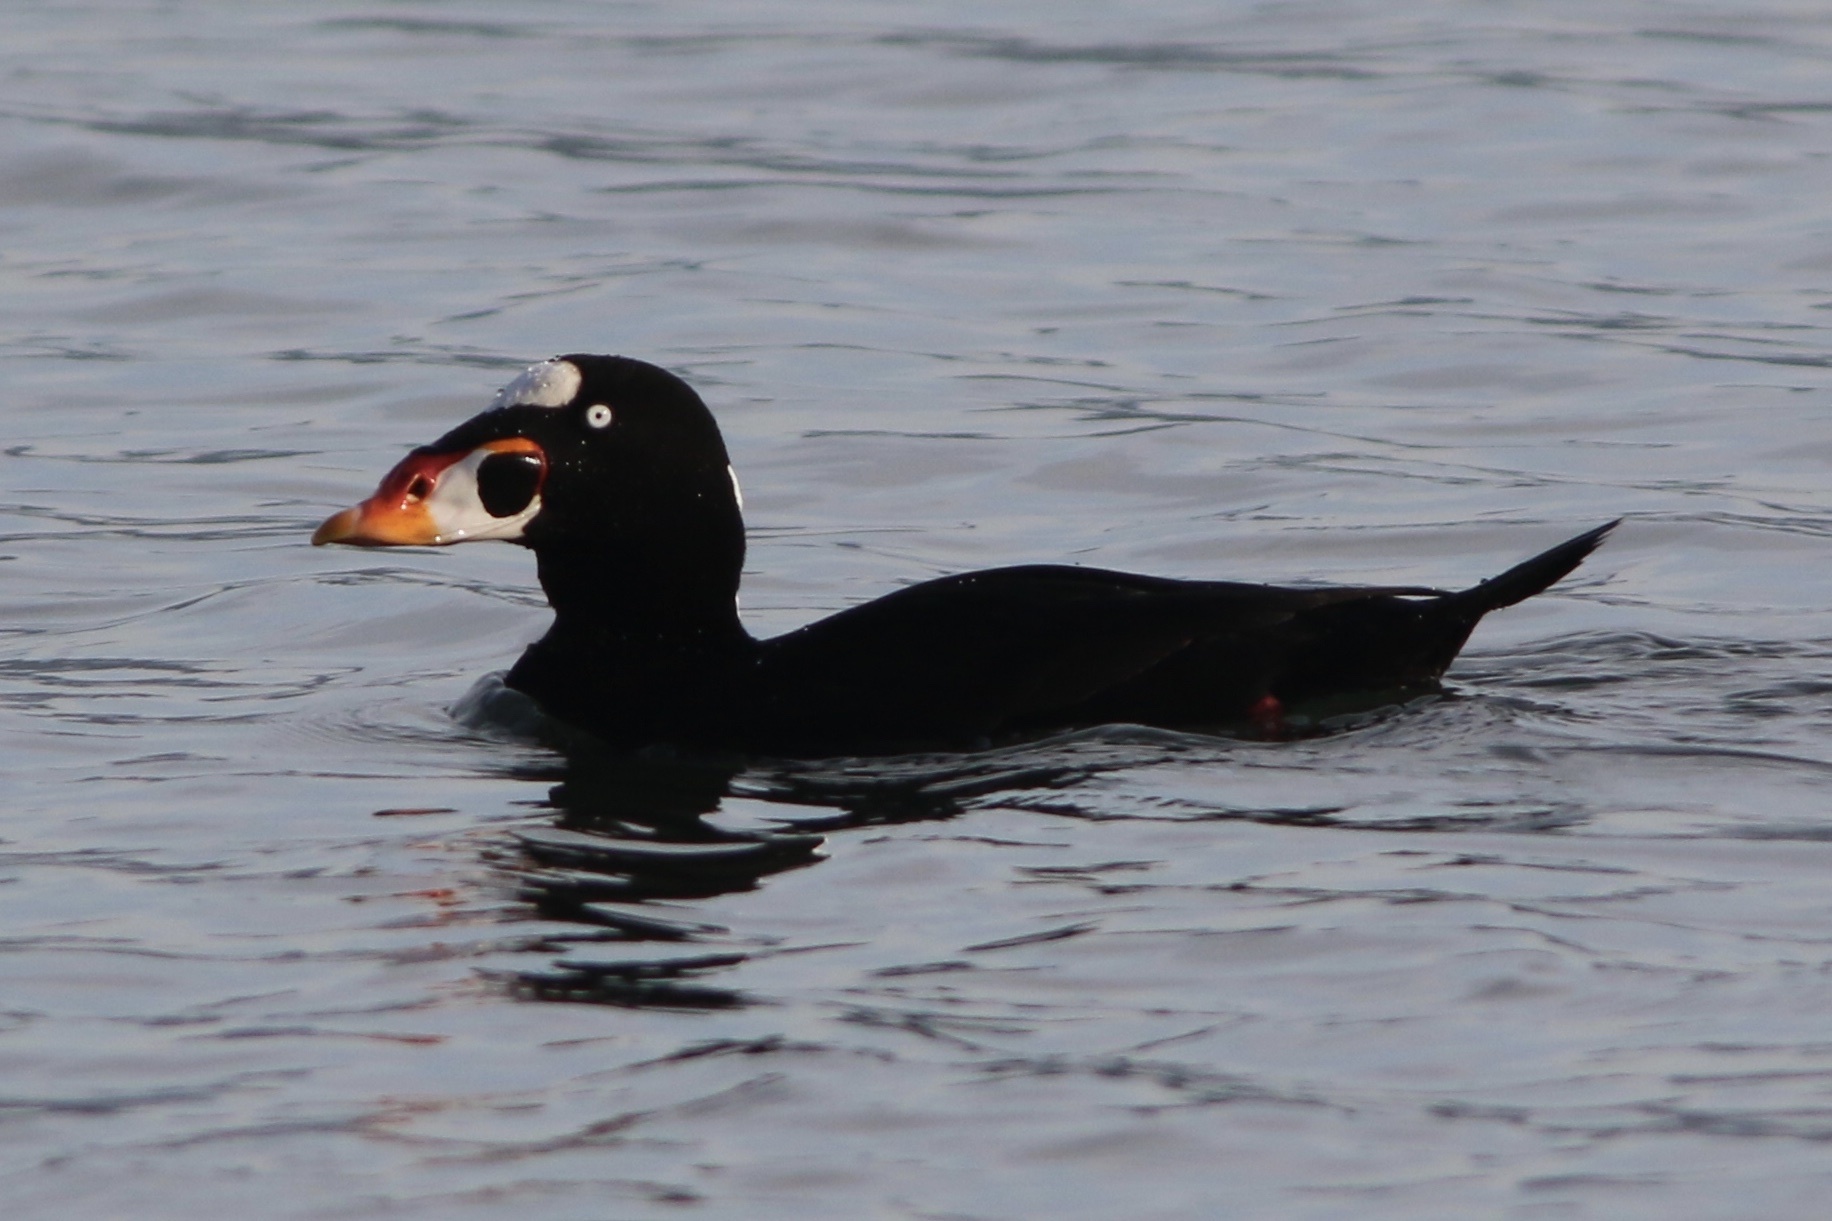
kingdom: Animalia
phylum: Chordata
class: Aves
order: Anseriformes
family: Anatidae
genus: Melanitta
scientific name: Melanitta perspicillata
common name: Surf scoter
